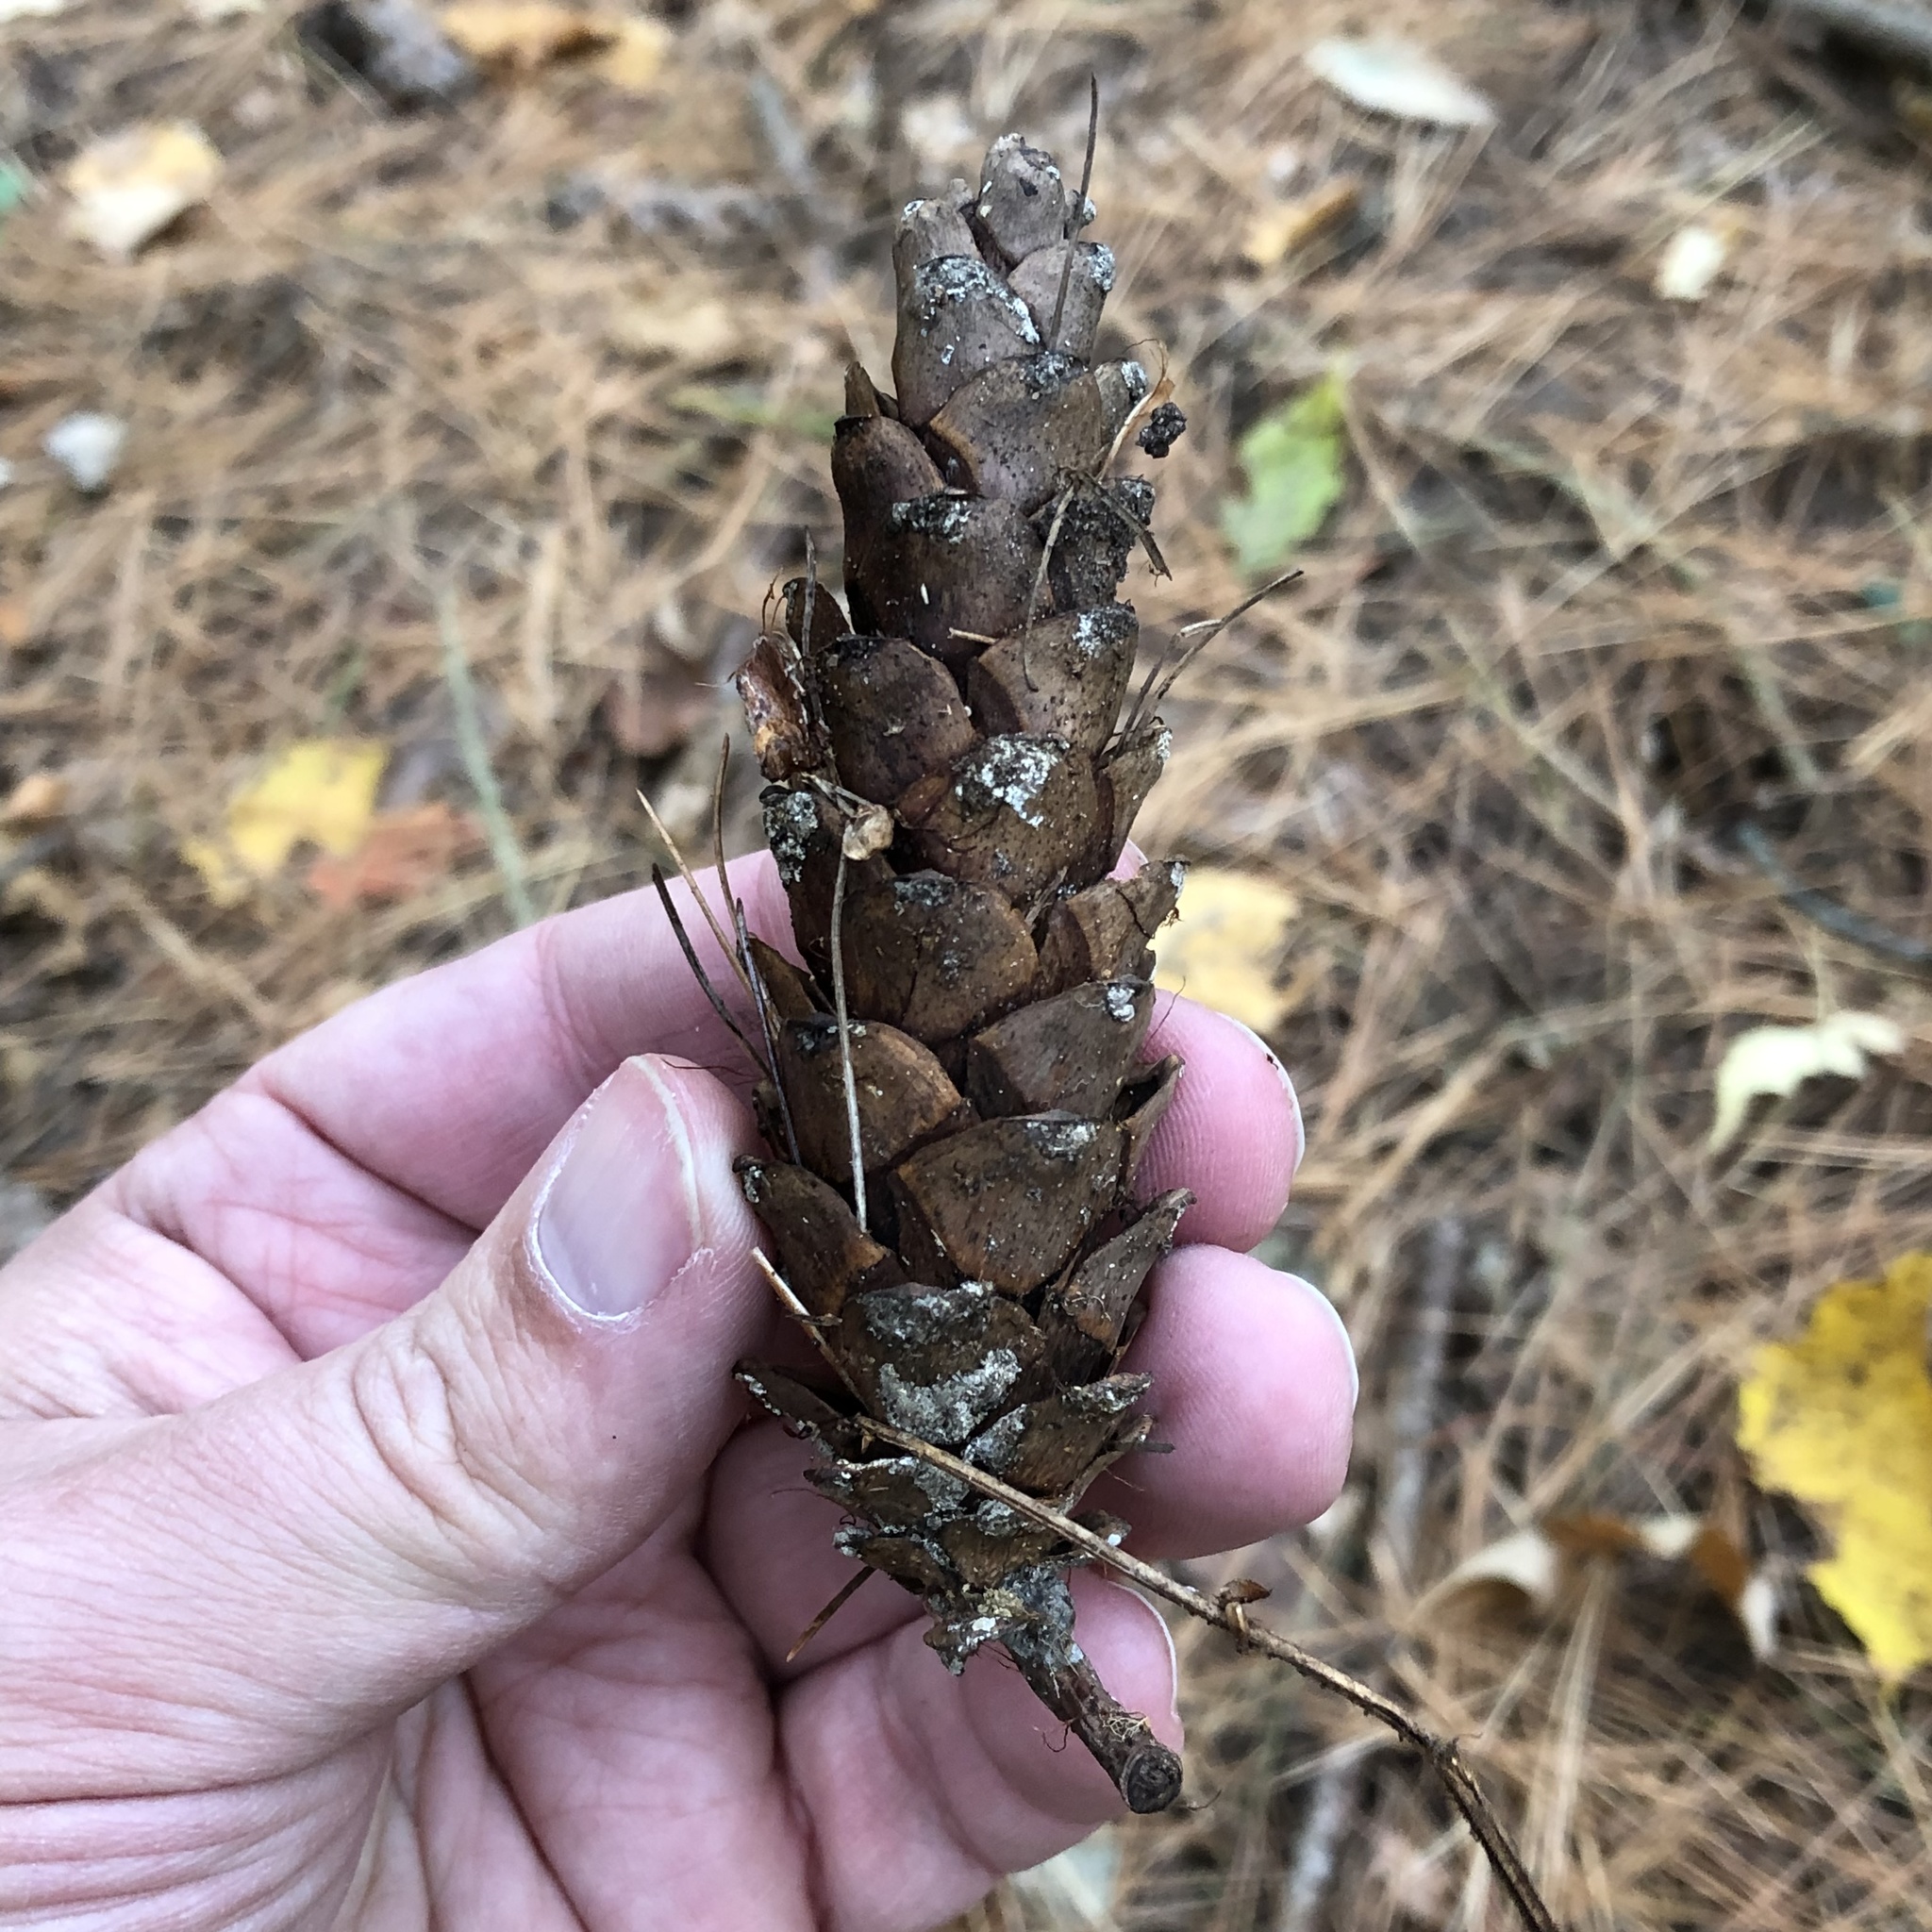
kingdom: Plantae
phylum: Tracheophyta
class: Pinopsida
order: Pinales
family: Pinaceae
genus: Pinus
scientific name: Pinus strobus
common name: Weymouth pine
